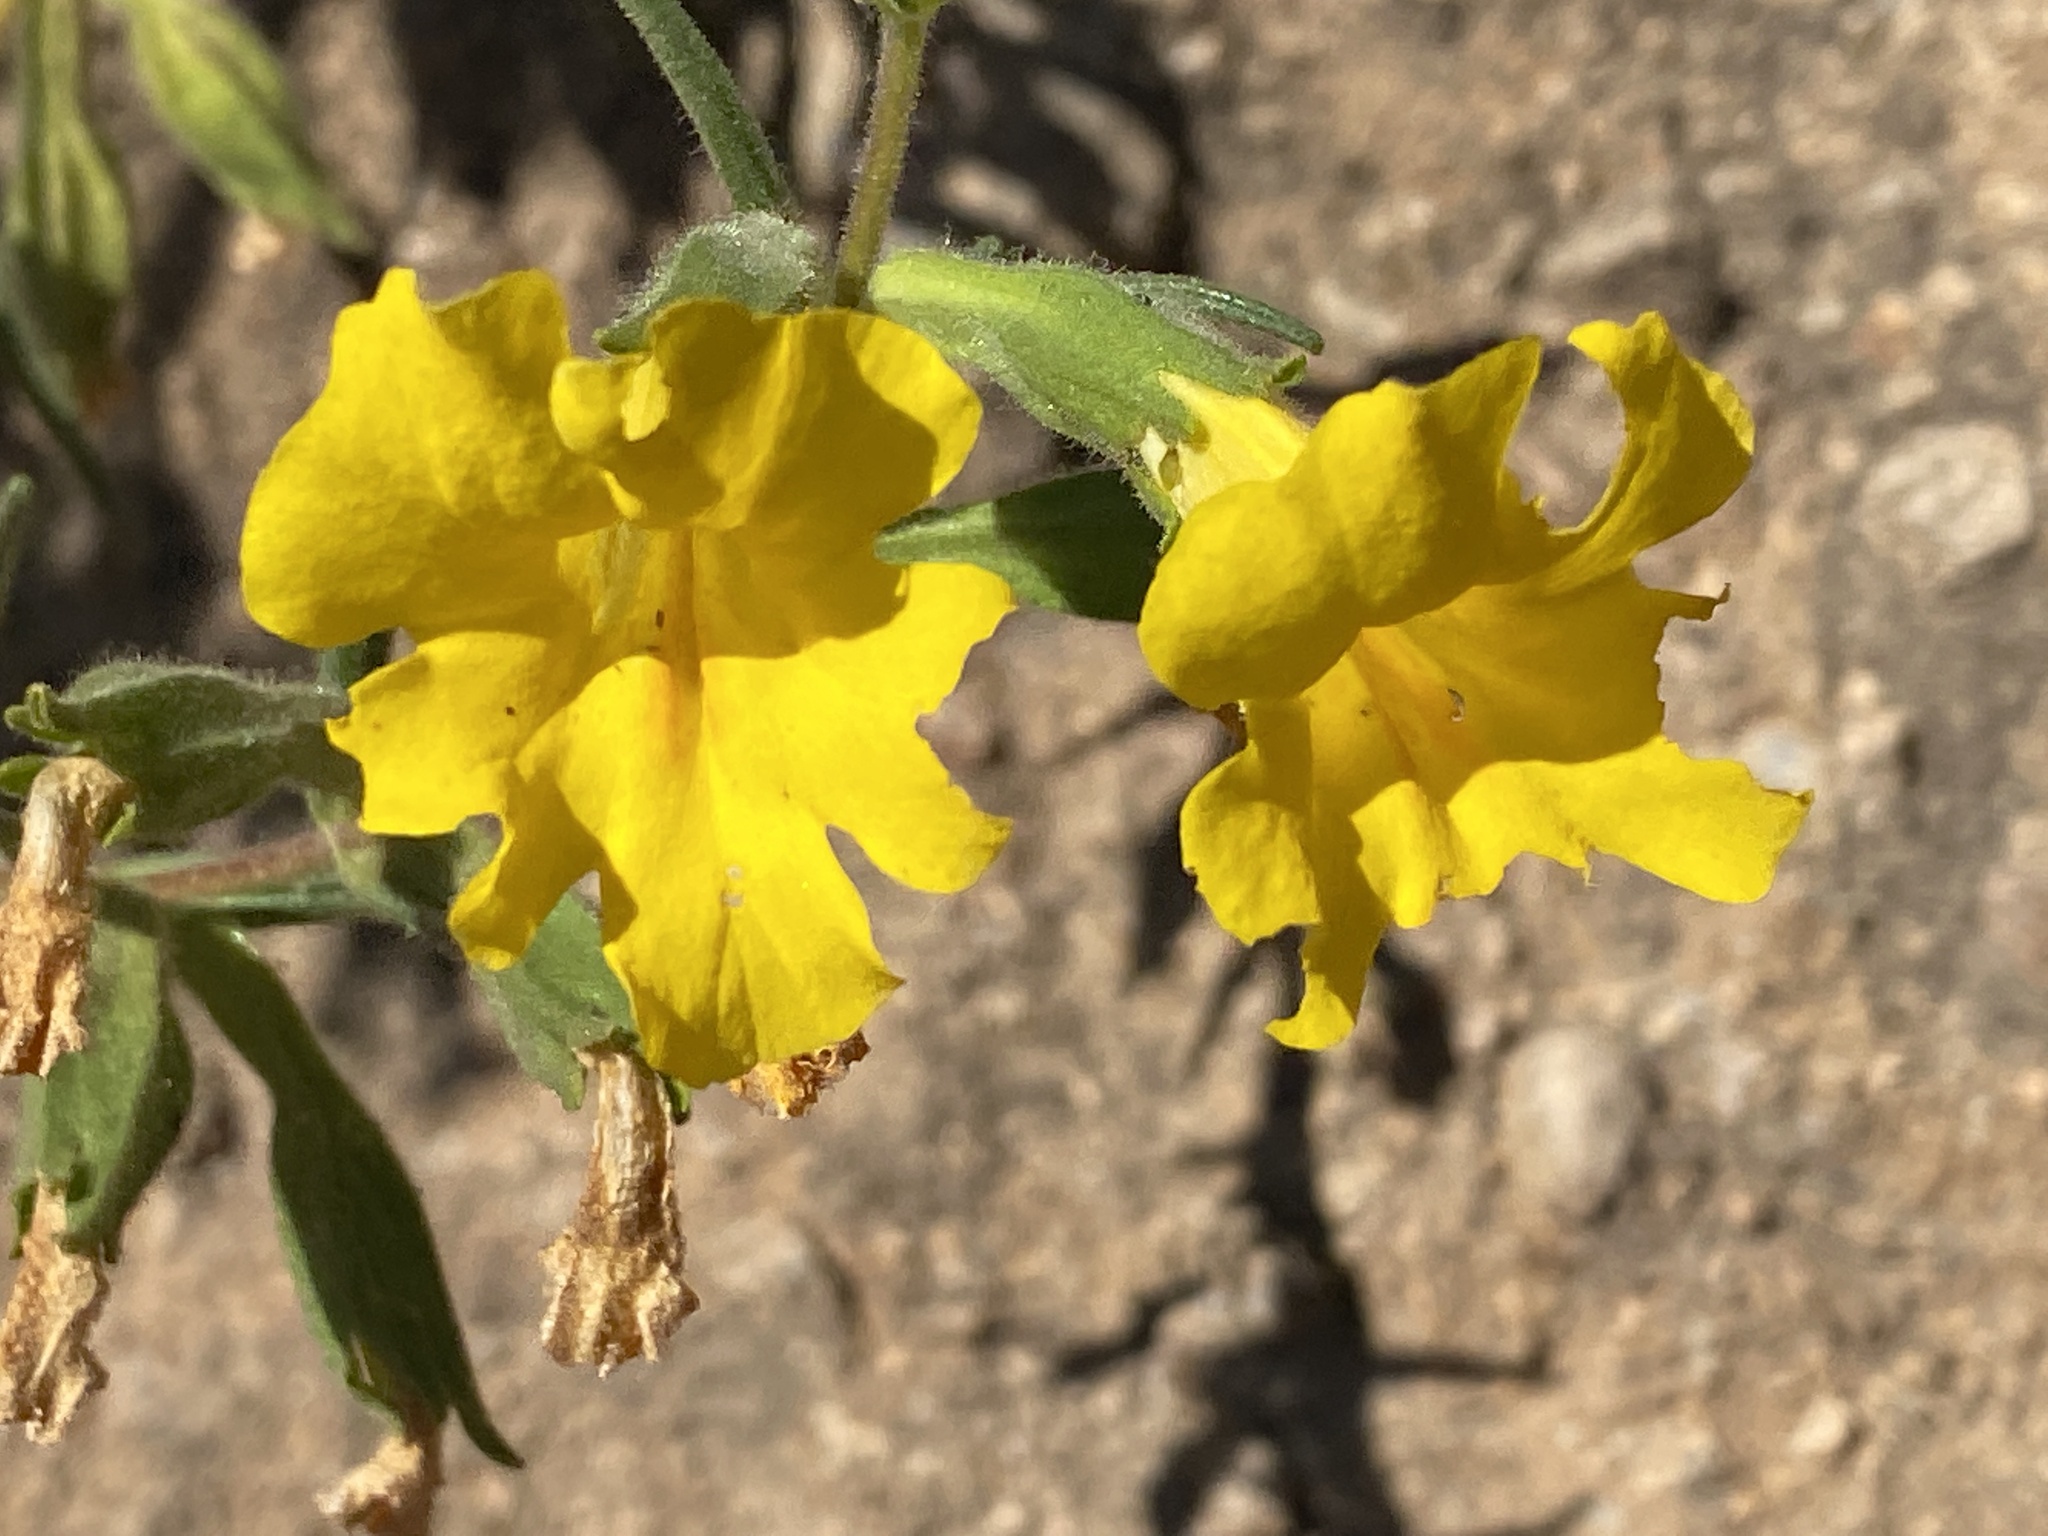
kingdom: Plantae
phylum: Tracheophyta
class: Magnoliopsida
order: Lamiales
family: Phrymaceae
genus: Diplacus
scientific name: Diplacus brevipes
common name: Wide-throat yellow monkey-flower
